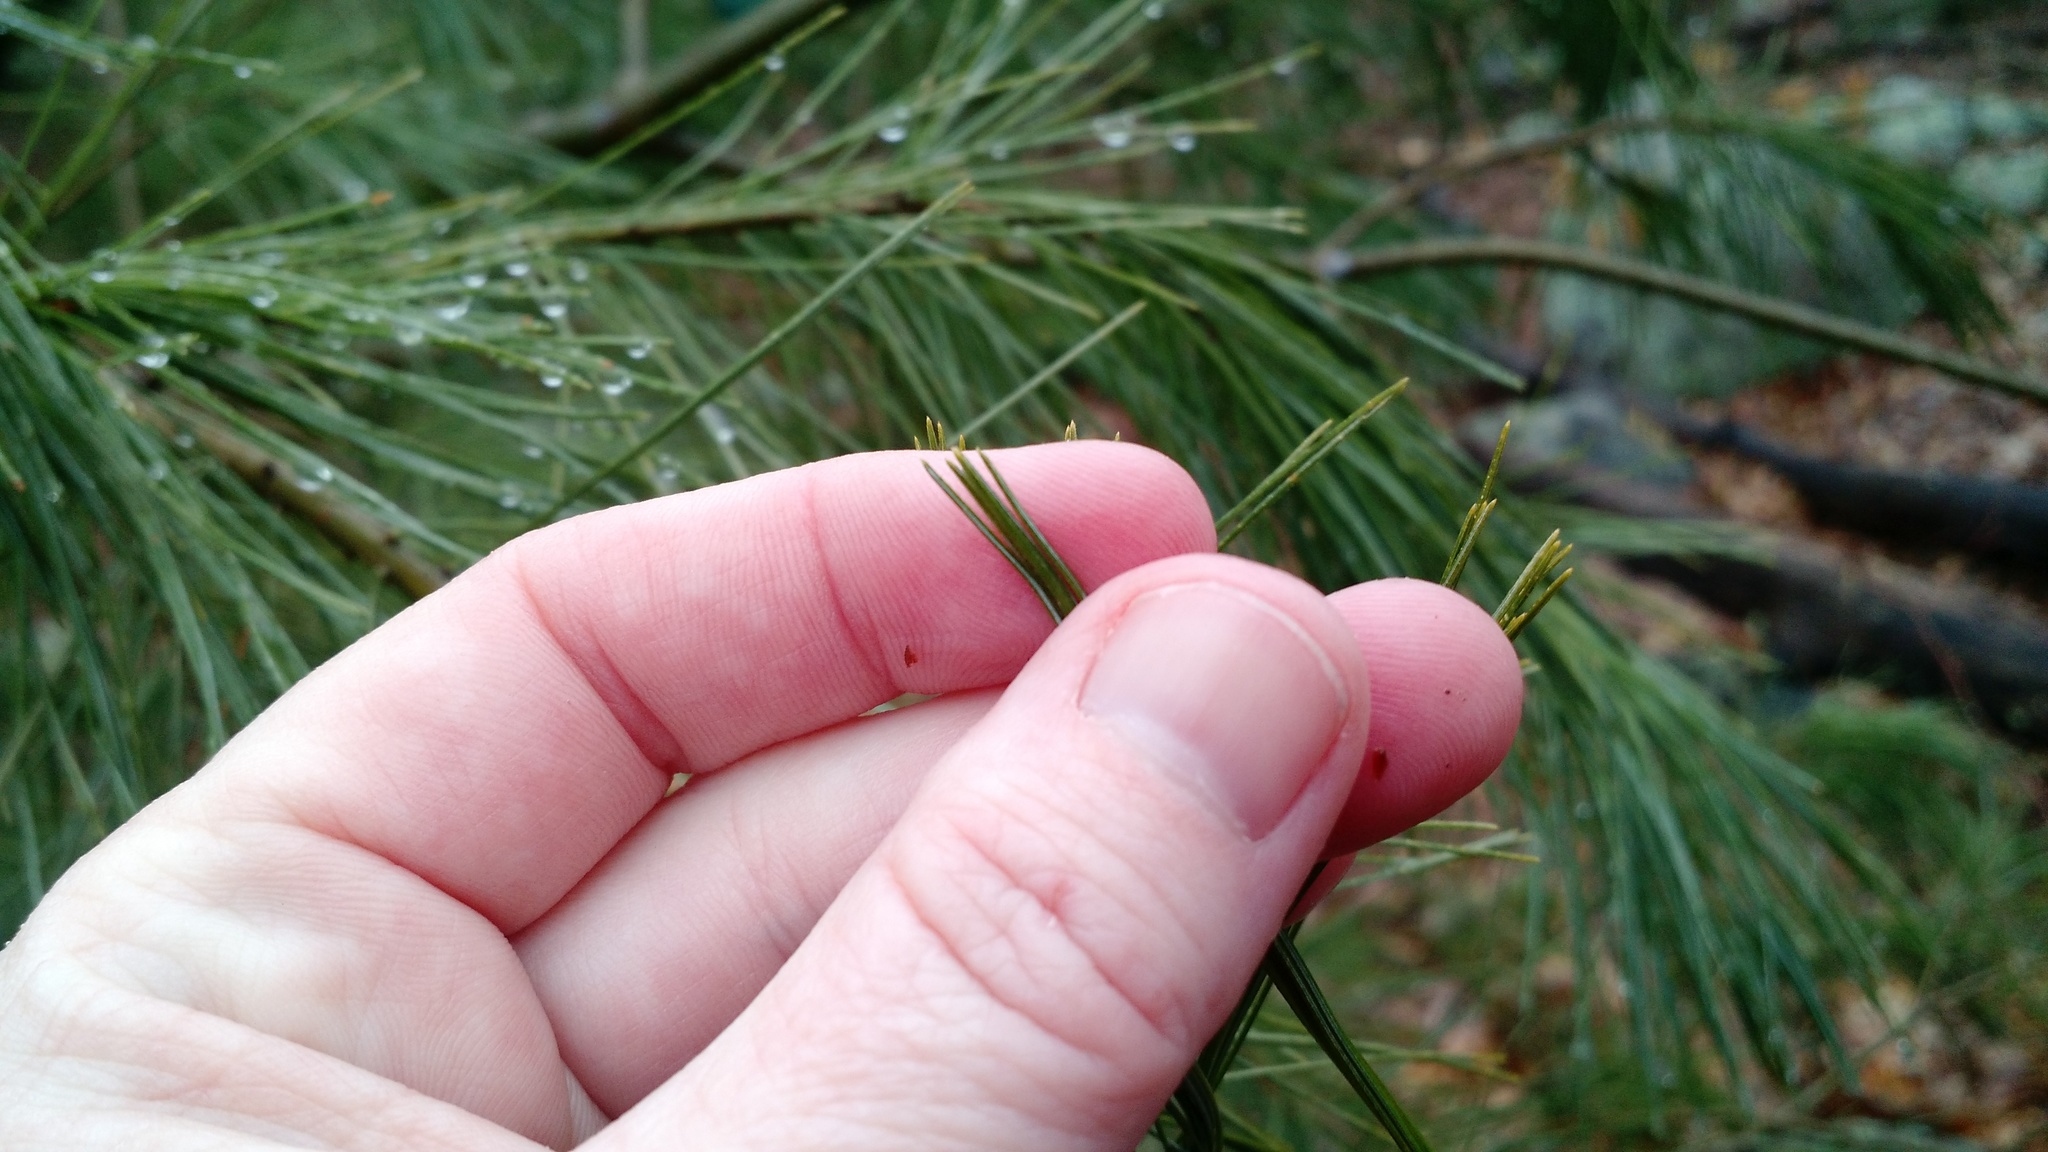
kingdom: Plantae
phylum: Tracheophyta
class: Pinopsida
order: Pinales
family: Pinaceae
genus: Pinus
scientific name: Pinus strobus
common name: Weymouth pine
